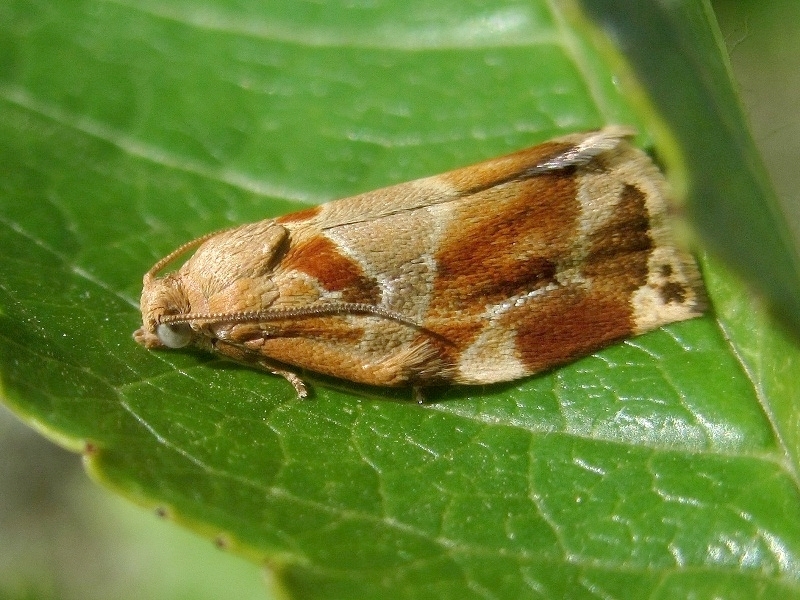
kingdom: Animalia
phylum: Arthropoda
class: Insecta
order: Lepidoptera
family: Tortricidae
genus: Archips
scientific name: Archips xylosteana
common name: Variegated golden tortrix
